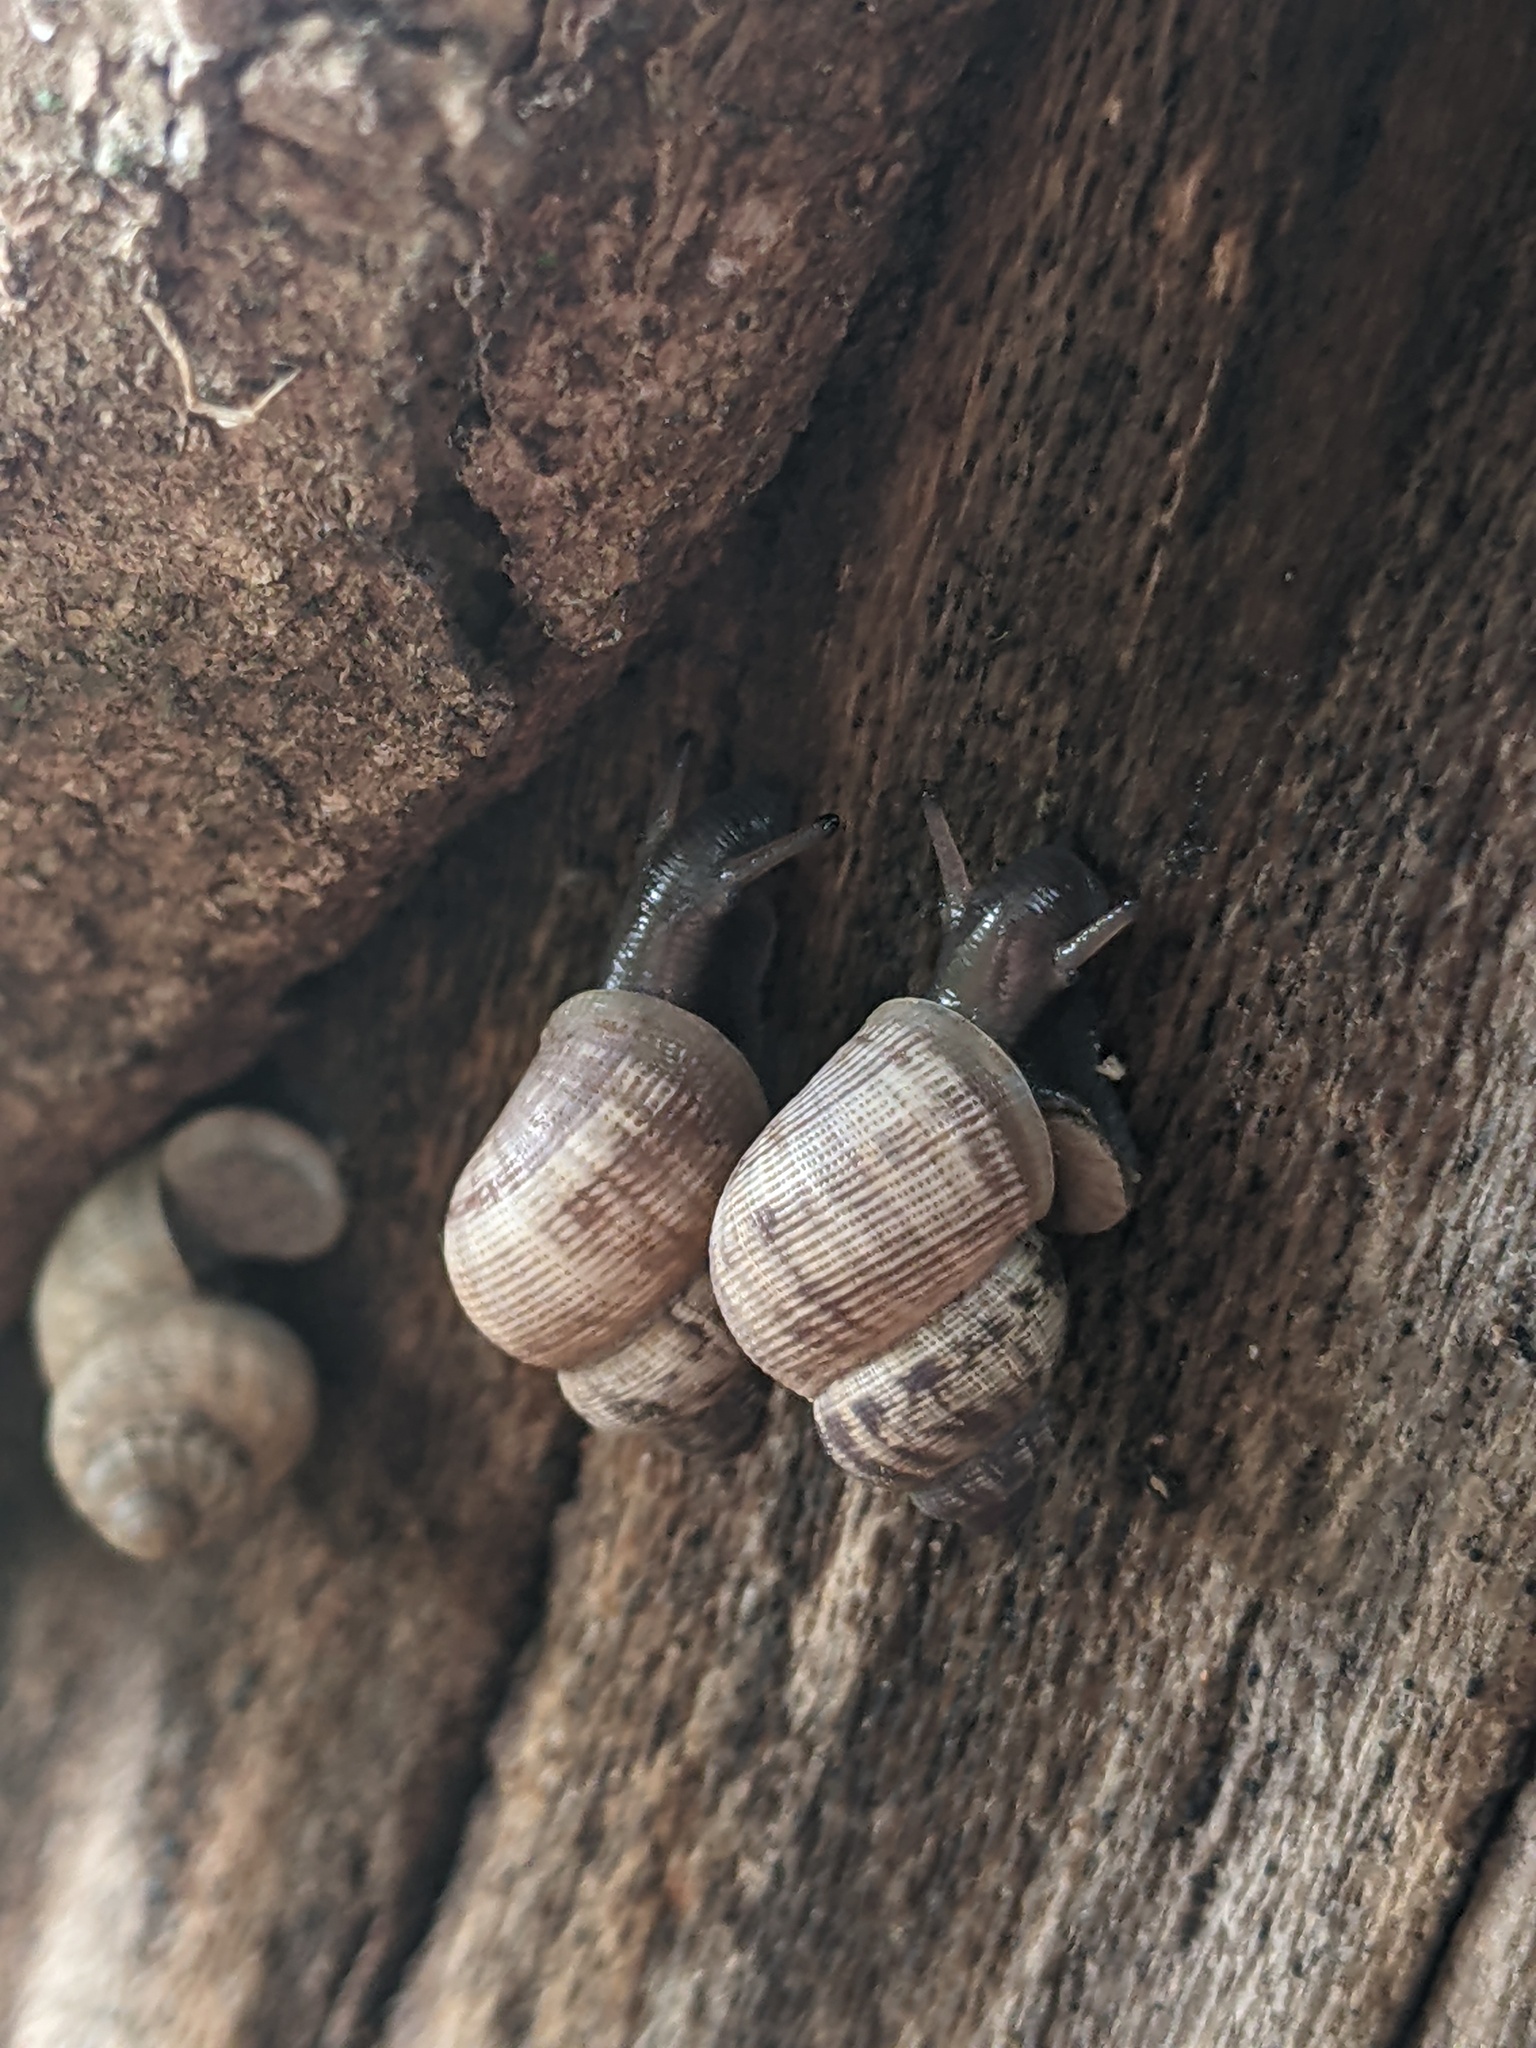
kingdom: Animalia
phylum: Mollusca
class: Gastropoda
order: Littorinimorpha
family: Pomatiidae
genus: Pomatias
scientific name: Pomatias elegans
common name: Red-mouthed snail
